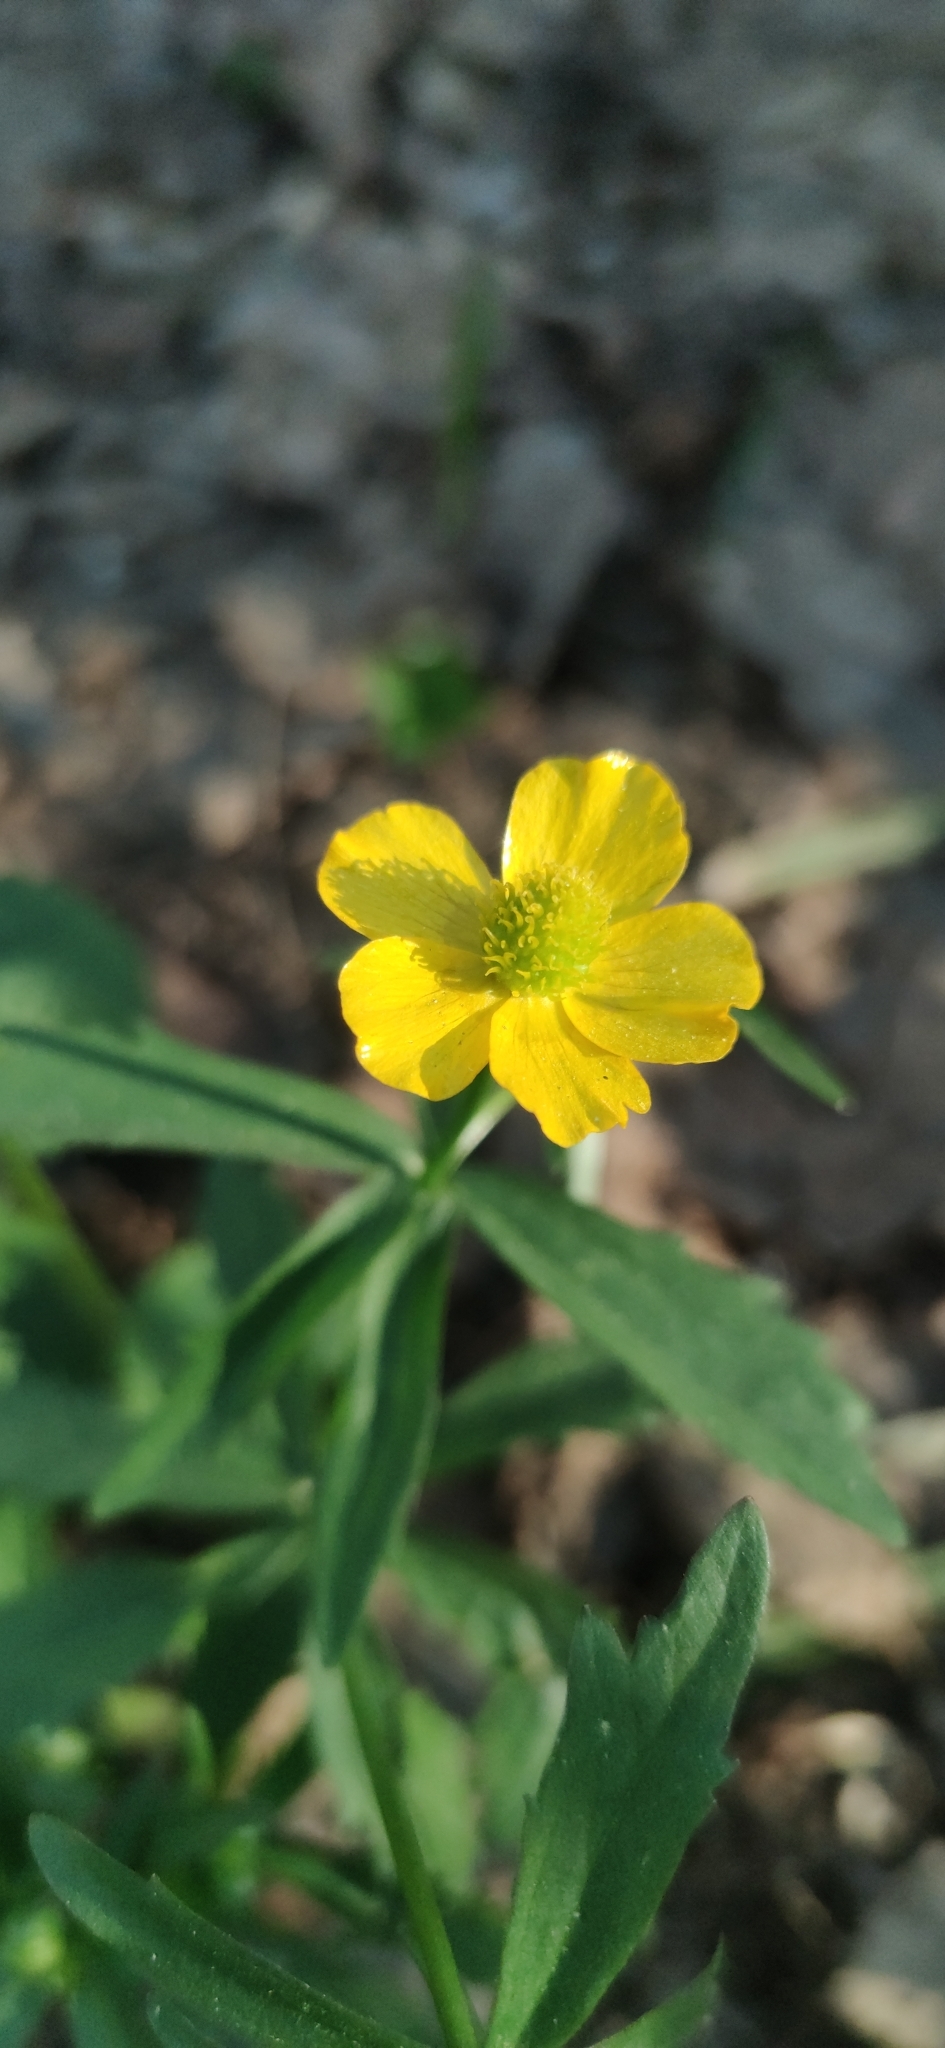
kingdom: Plantae
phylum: Tracheophyta
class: Magnoliopsida
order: Ranunculales
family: Ranunculaceae
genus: Ranunculus
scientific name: Ranunculus cassubicus
